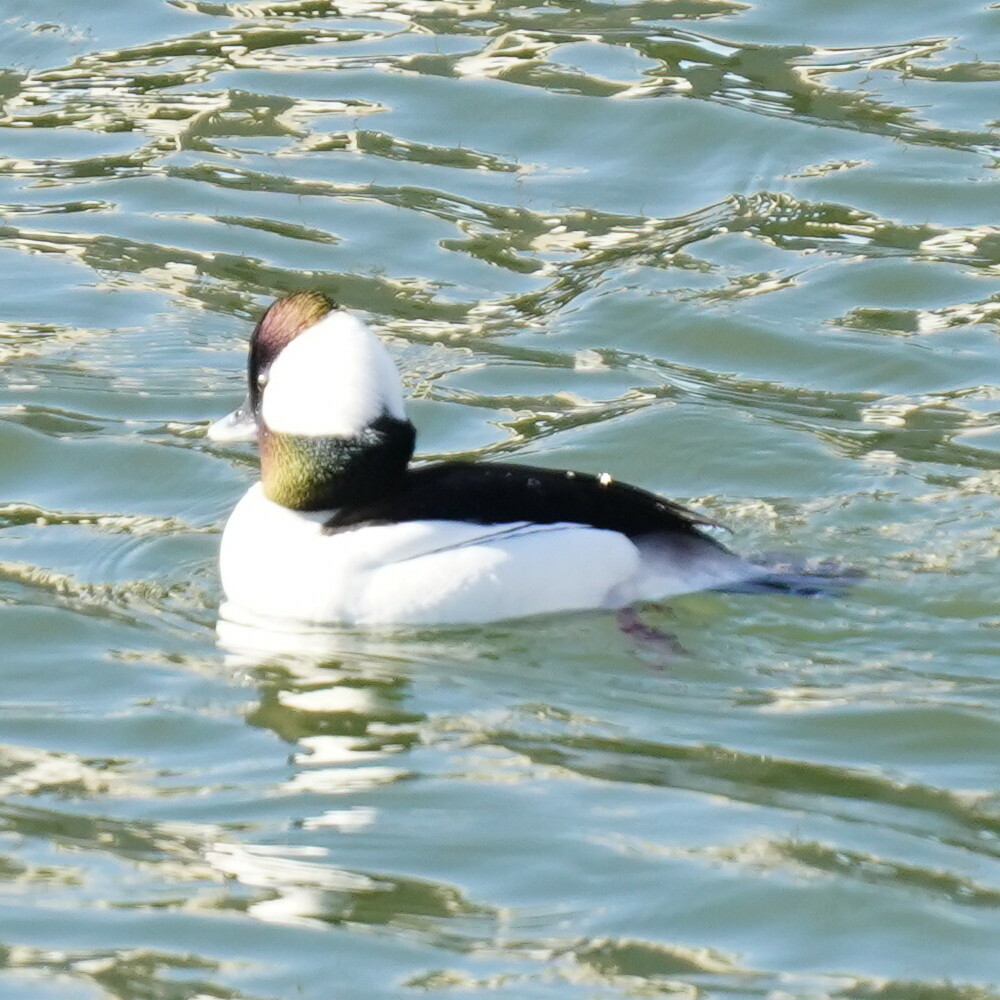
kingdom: Animalia
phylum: Chordata
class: Aves
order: Anseriformes
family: Anatidae
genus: Bucephala
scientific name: Bucephala albeola
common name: Bufflehead
